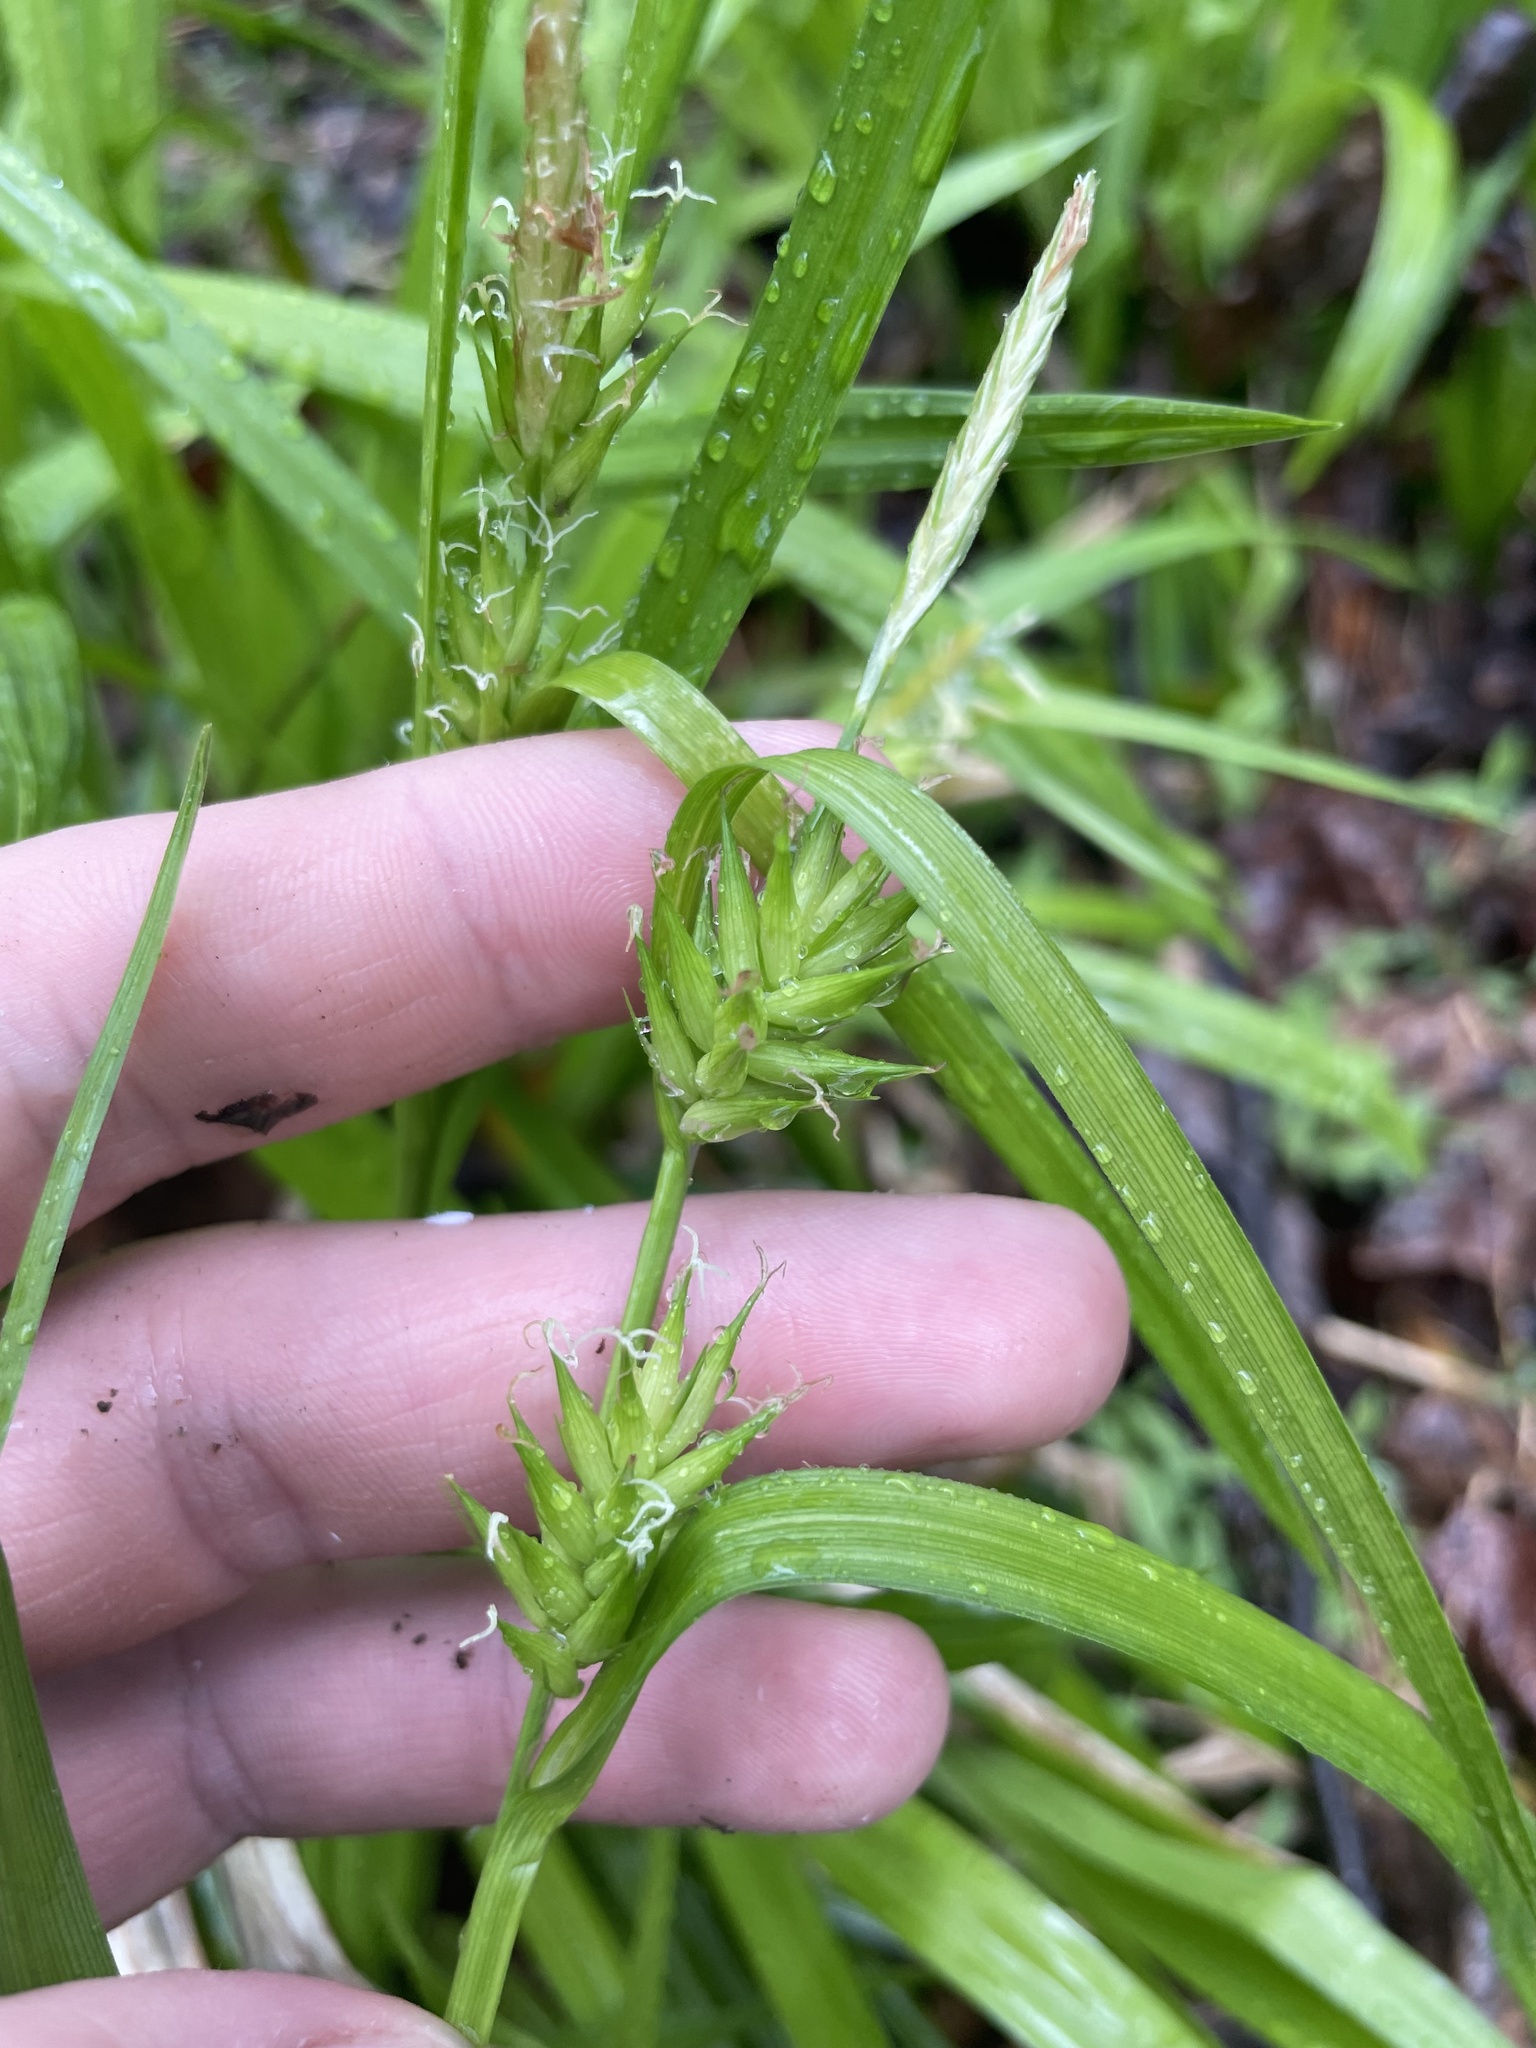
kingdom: Plantae
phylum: Tracheophyta
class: Liliopsida
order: Poales
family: Cyperaceae
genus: Carex
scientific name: Carex folliculata
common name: Northern long sedge
